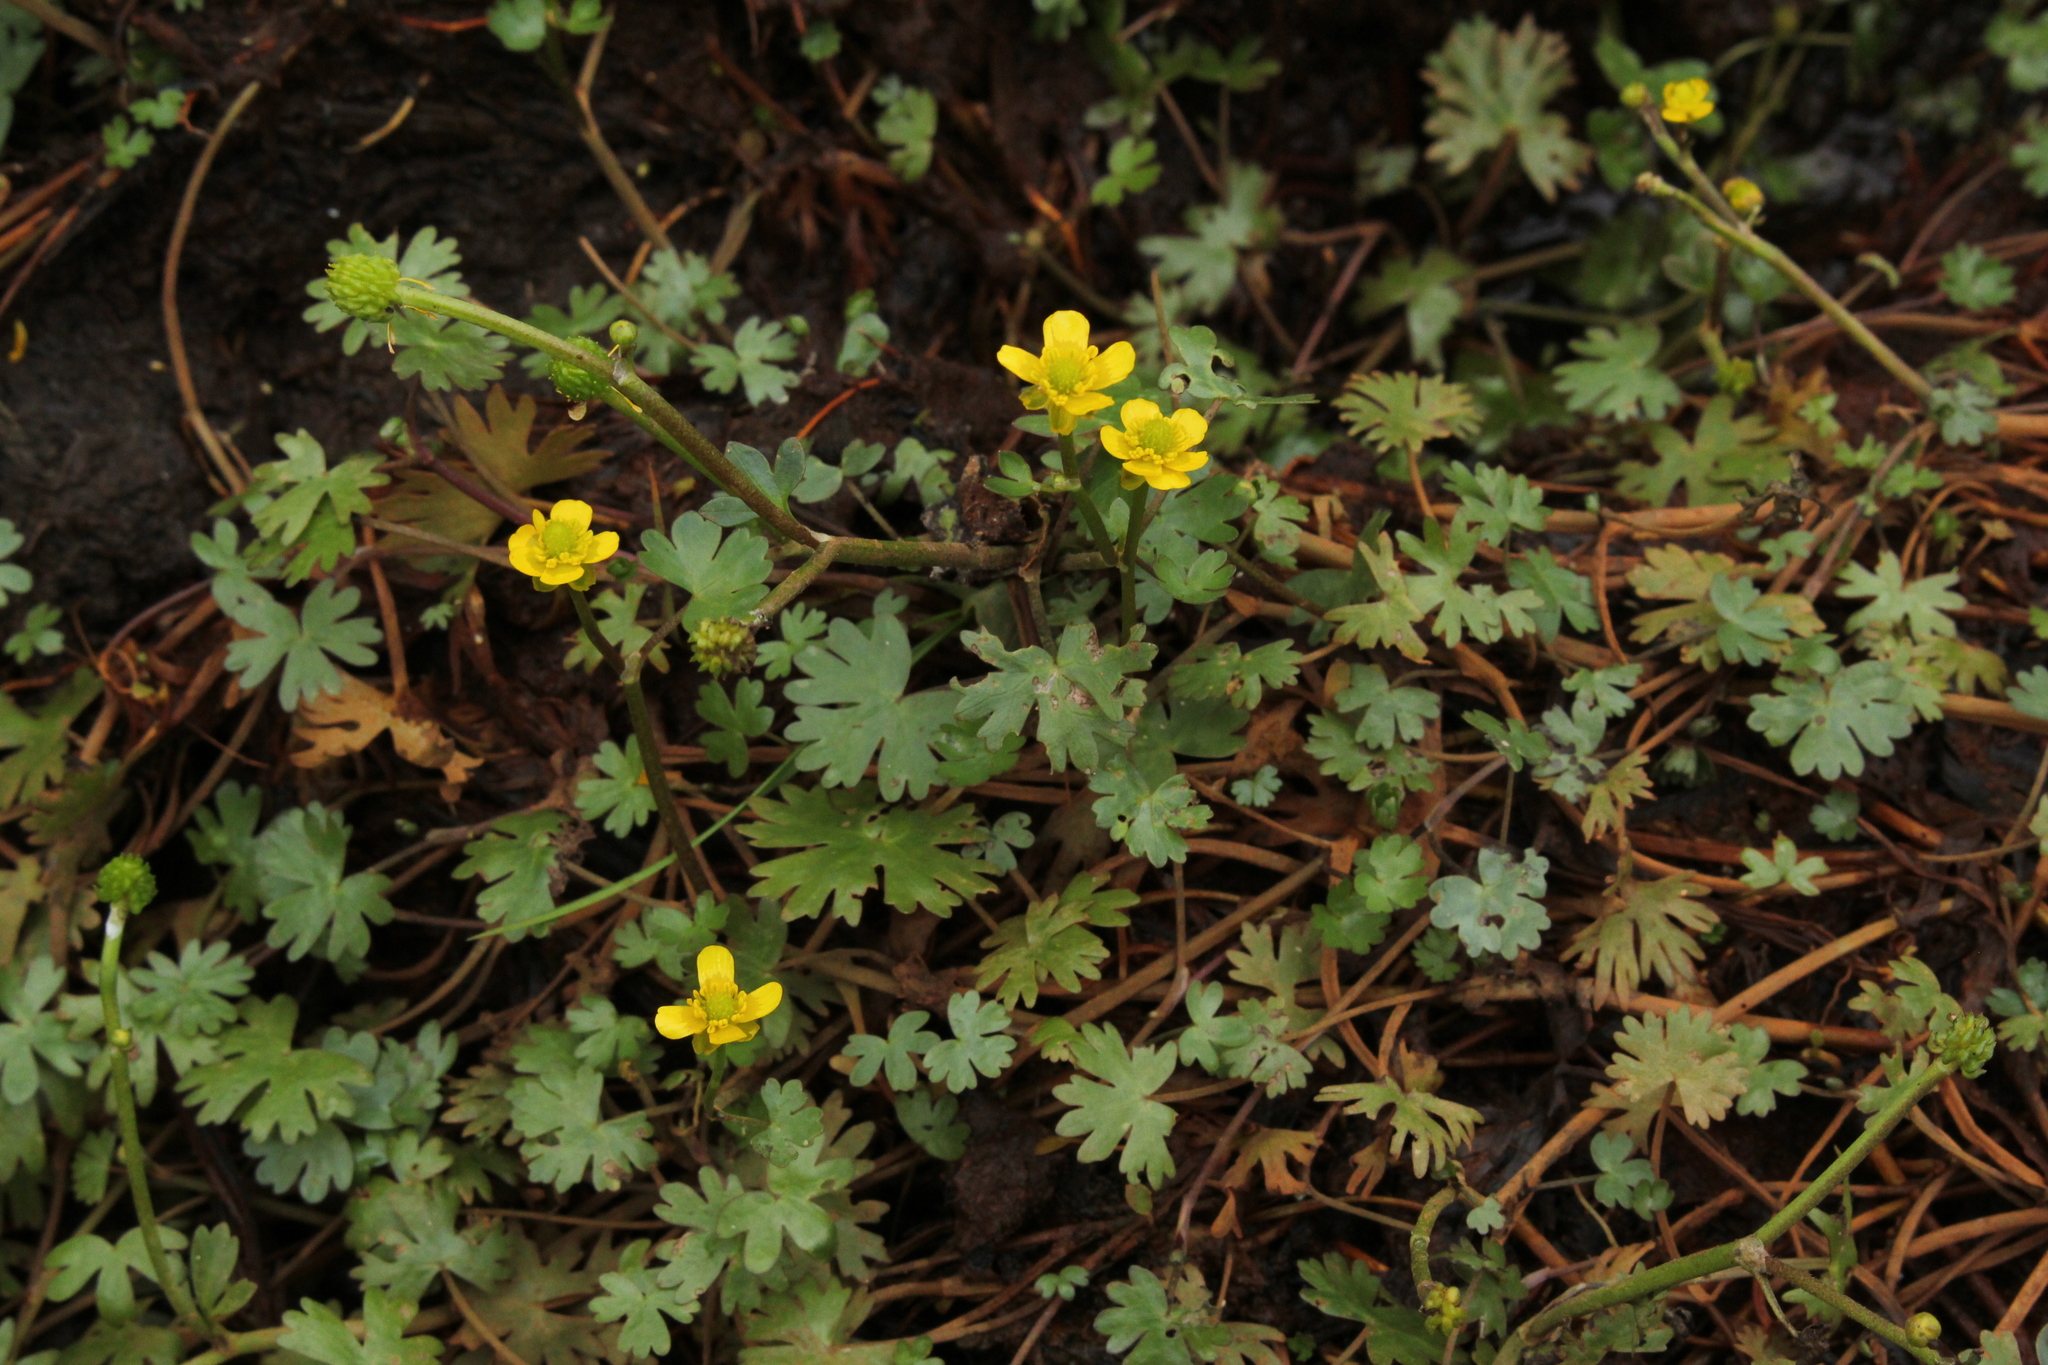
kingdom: Plantae
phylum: Tracheophyta
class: Magnoliopsida
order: Ranunculales
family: Ranunculaceae
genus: Ranunculus
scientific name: Ranunculus gmelinii
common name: Gmelin's buttercup
